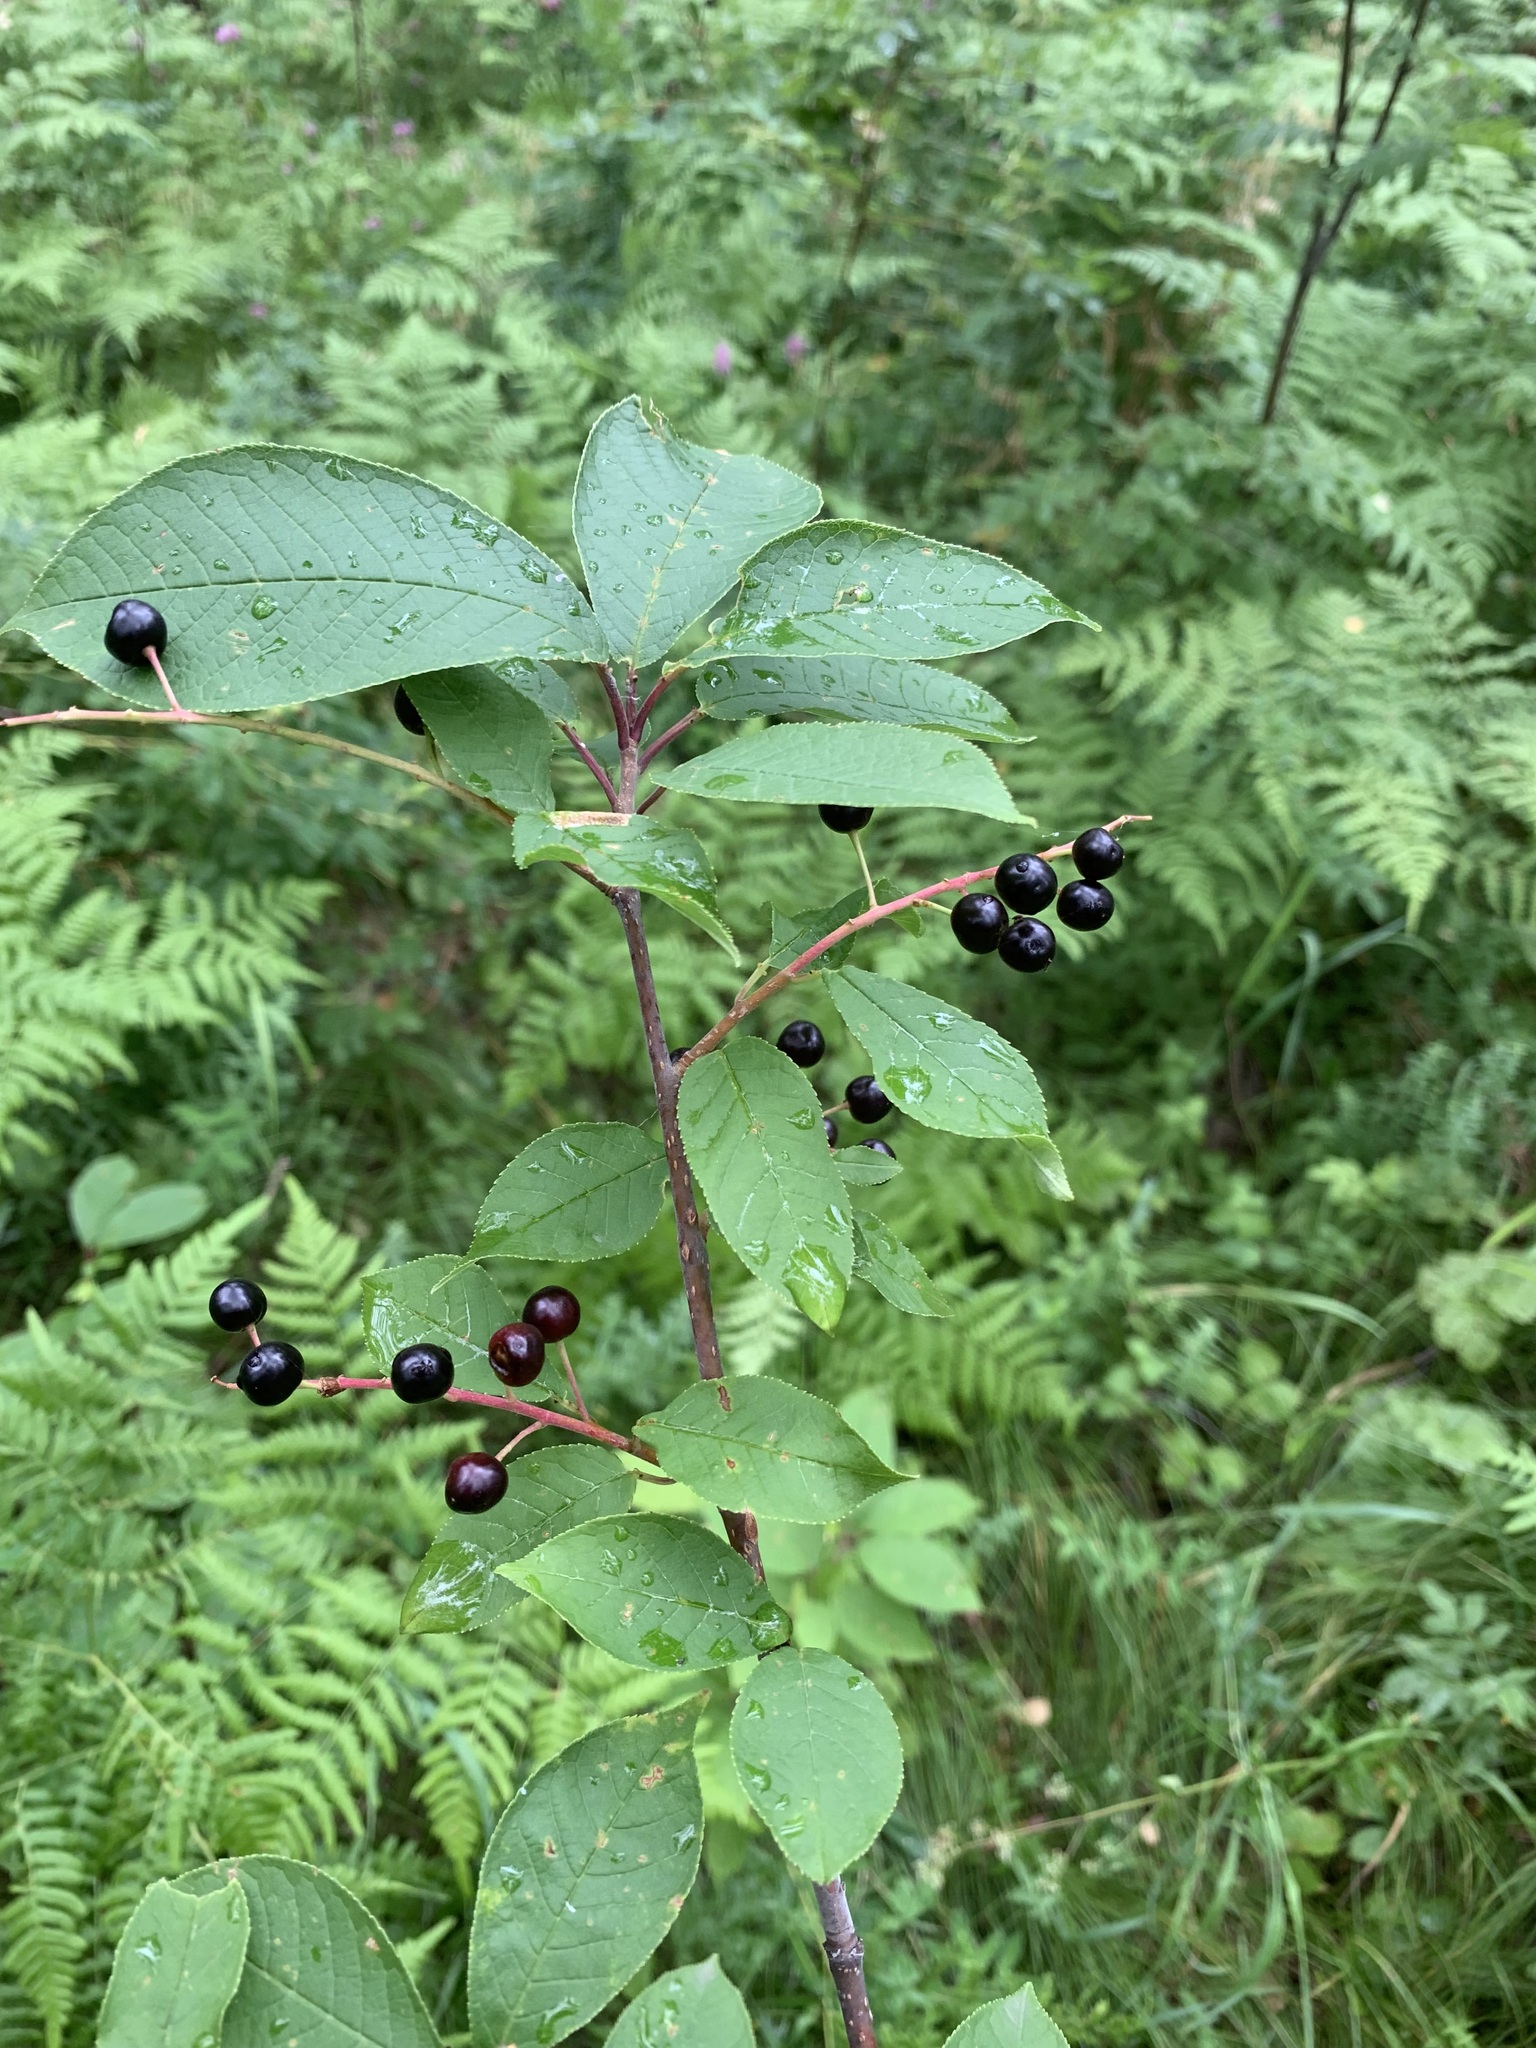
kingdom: Plantae
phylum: Tracheophyta
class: Magnoliopsida
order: Rosales
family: Rosaceae
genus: Prunus
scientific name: Prunus padus
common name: Bird cherry
